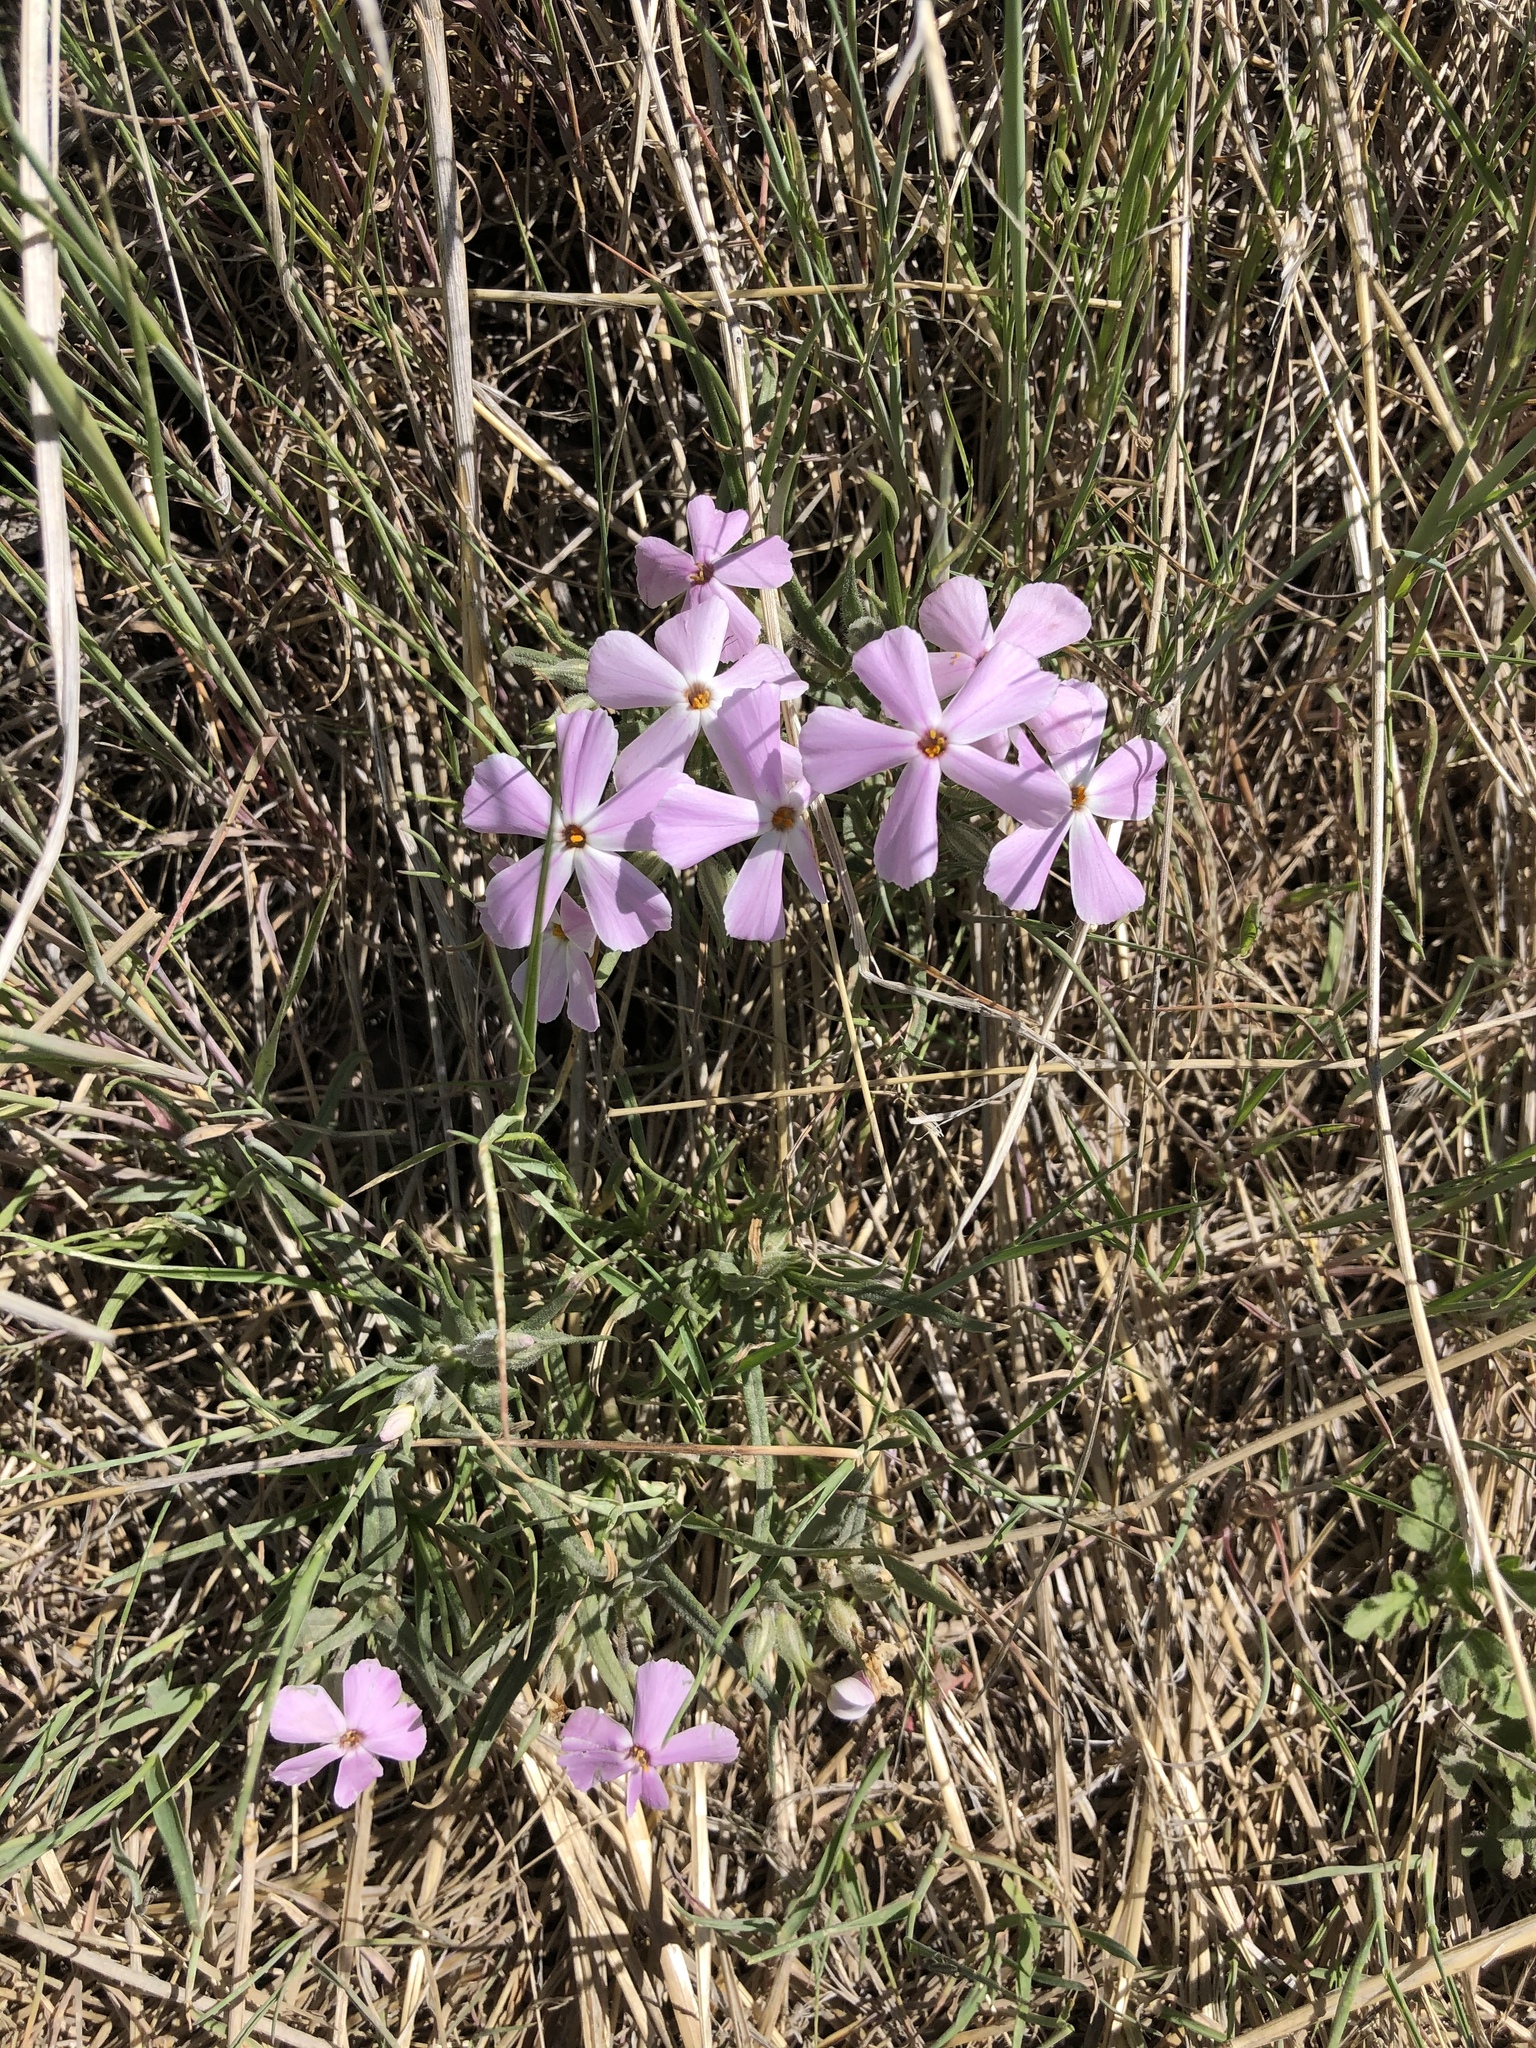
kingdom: Plantae
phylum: Tracheophyta
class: Magnoliopsida
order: Ericales
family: Polemoniaceae
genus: Phlox
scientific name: Phlox longifolia
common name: Longleaf phlox
